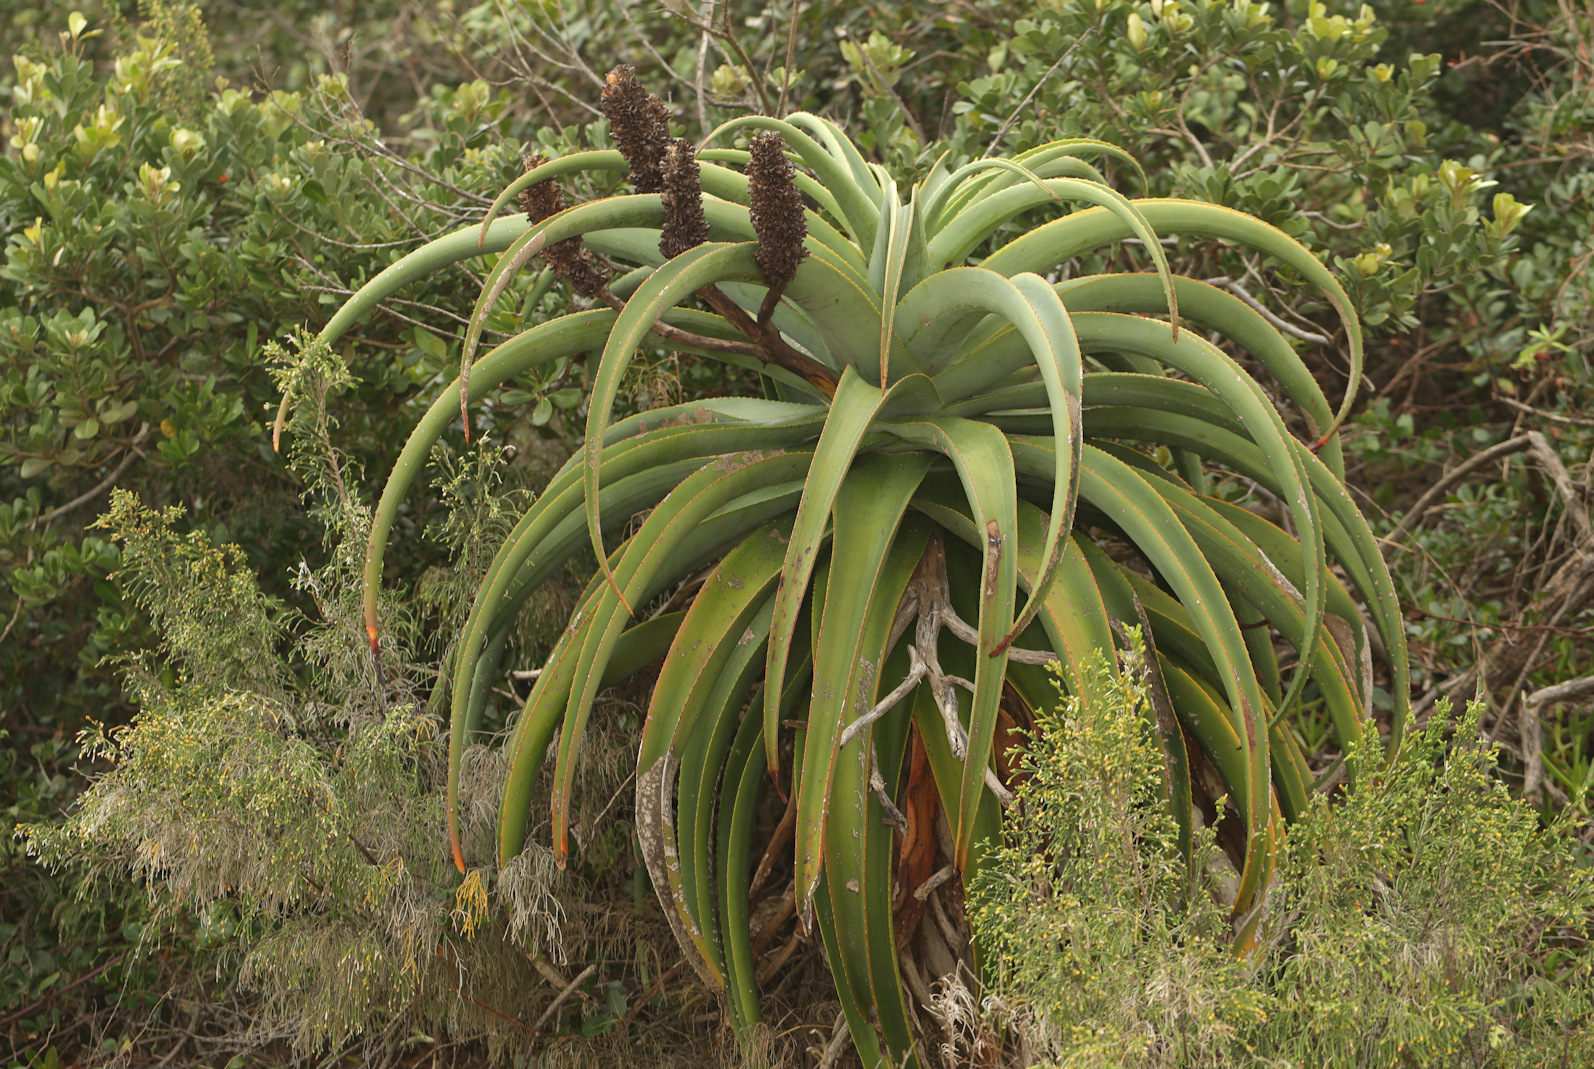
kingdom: Plantae
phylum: Tracheophyta
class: Liliopsida
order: Asparagales
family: Asphodelaceae
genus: Aloe
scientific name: Aloe thraskii
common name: Coast aloe
